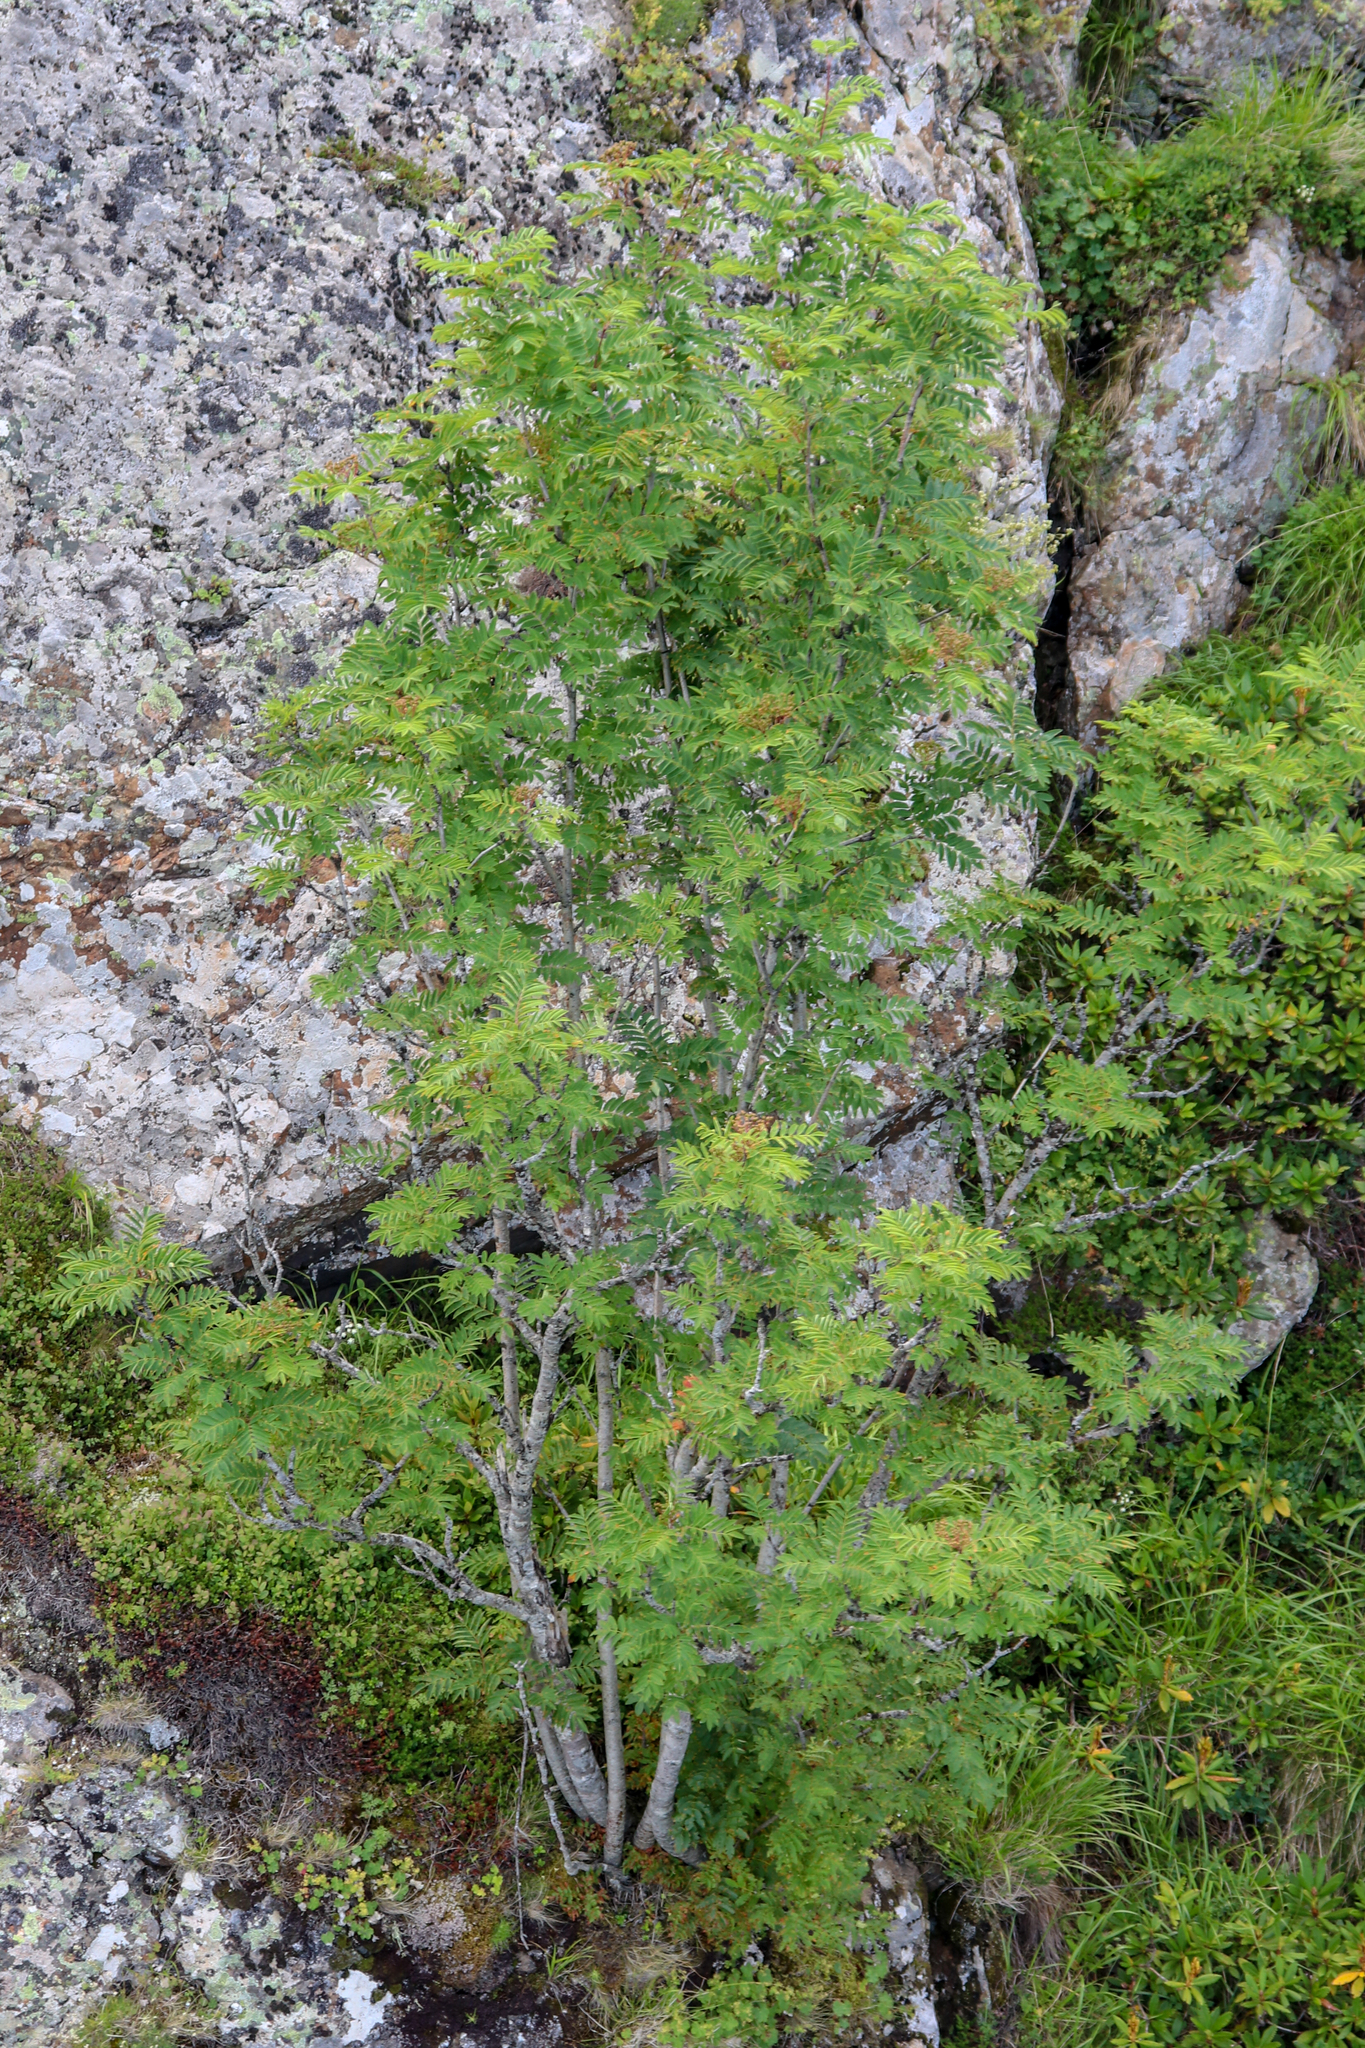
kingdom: Plantae
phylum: Tracheophyta
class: Magnoliopsida
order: Rosales
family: Rosaceae
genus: Sorbus
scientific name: Sorbus aucuparia
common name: Rowan
